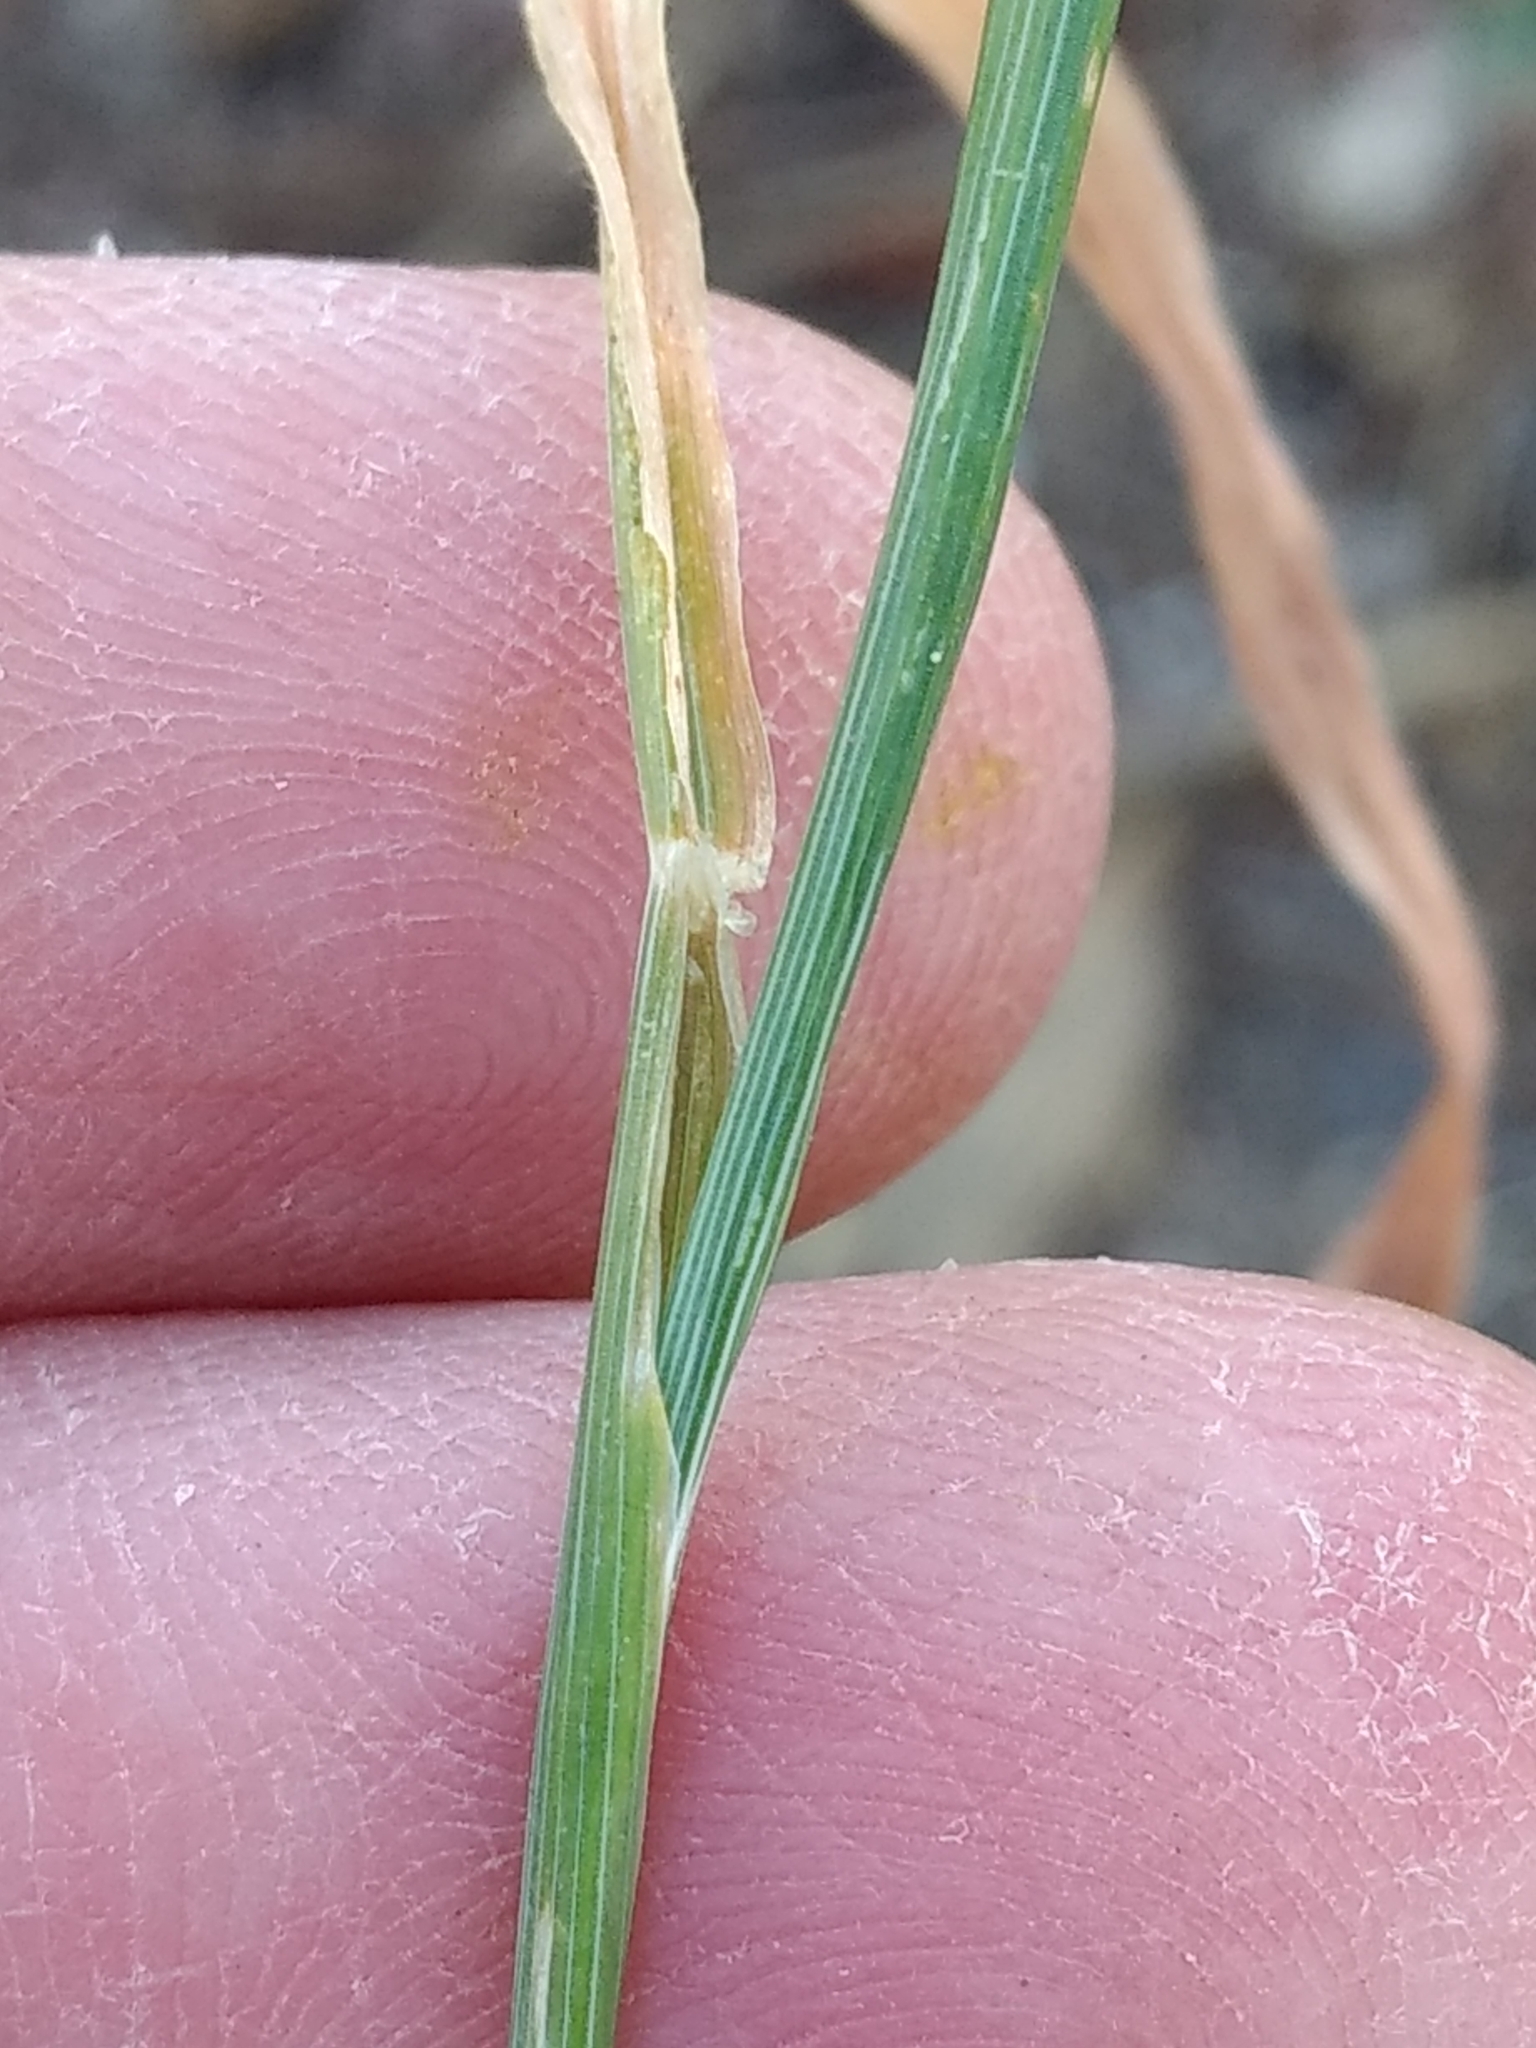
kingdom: Plantae
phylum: Tracheophyta
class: Liliopsida
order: Poales
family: Poaceae
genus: Hordeum
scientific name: Hordeum murinum
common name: Wall barley
